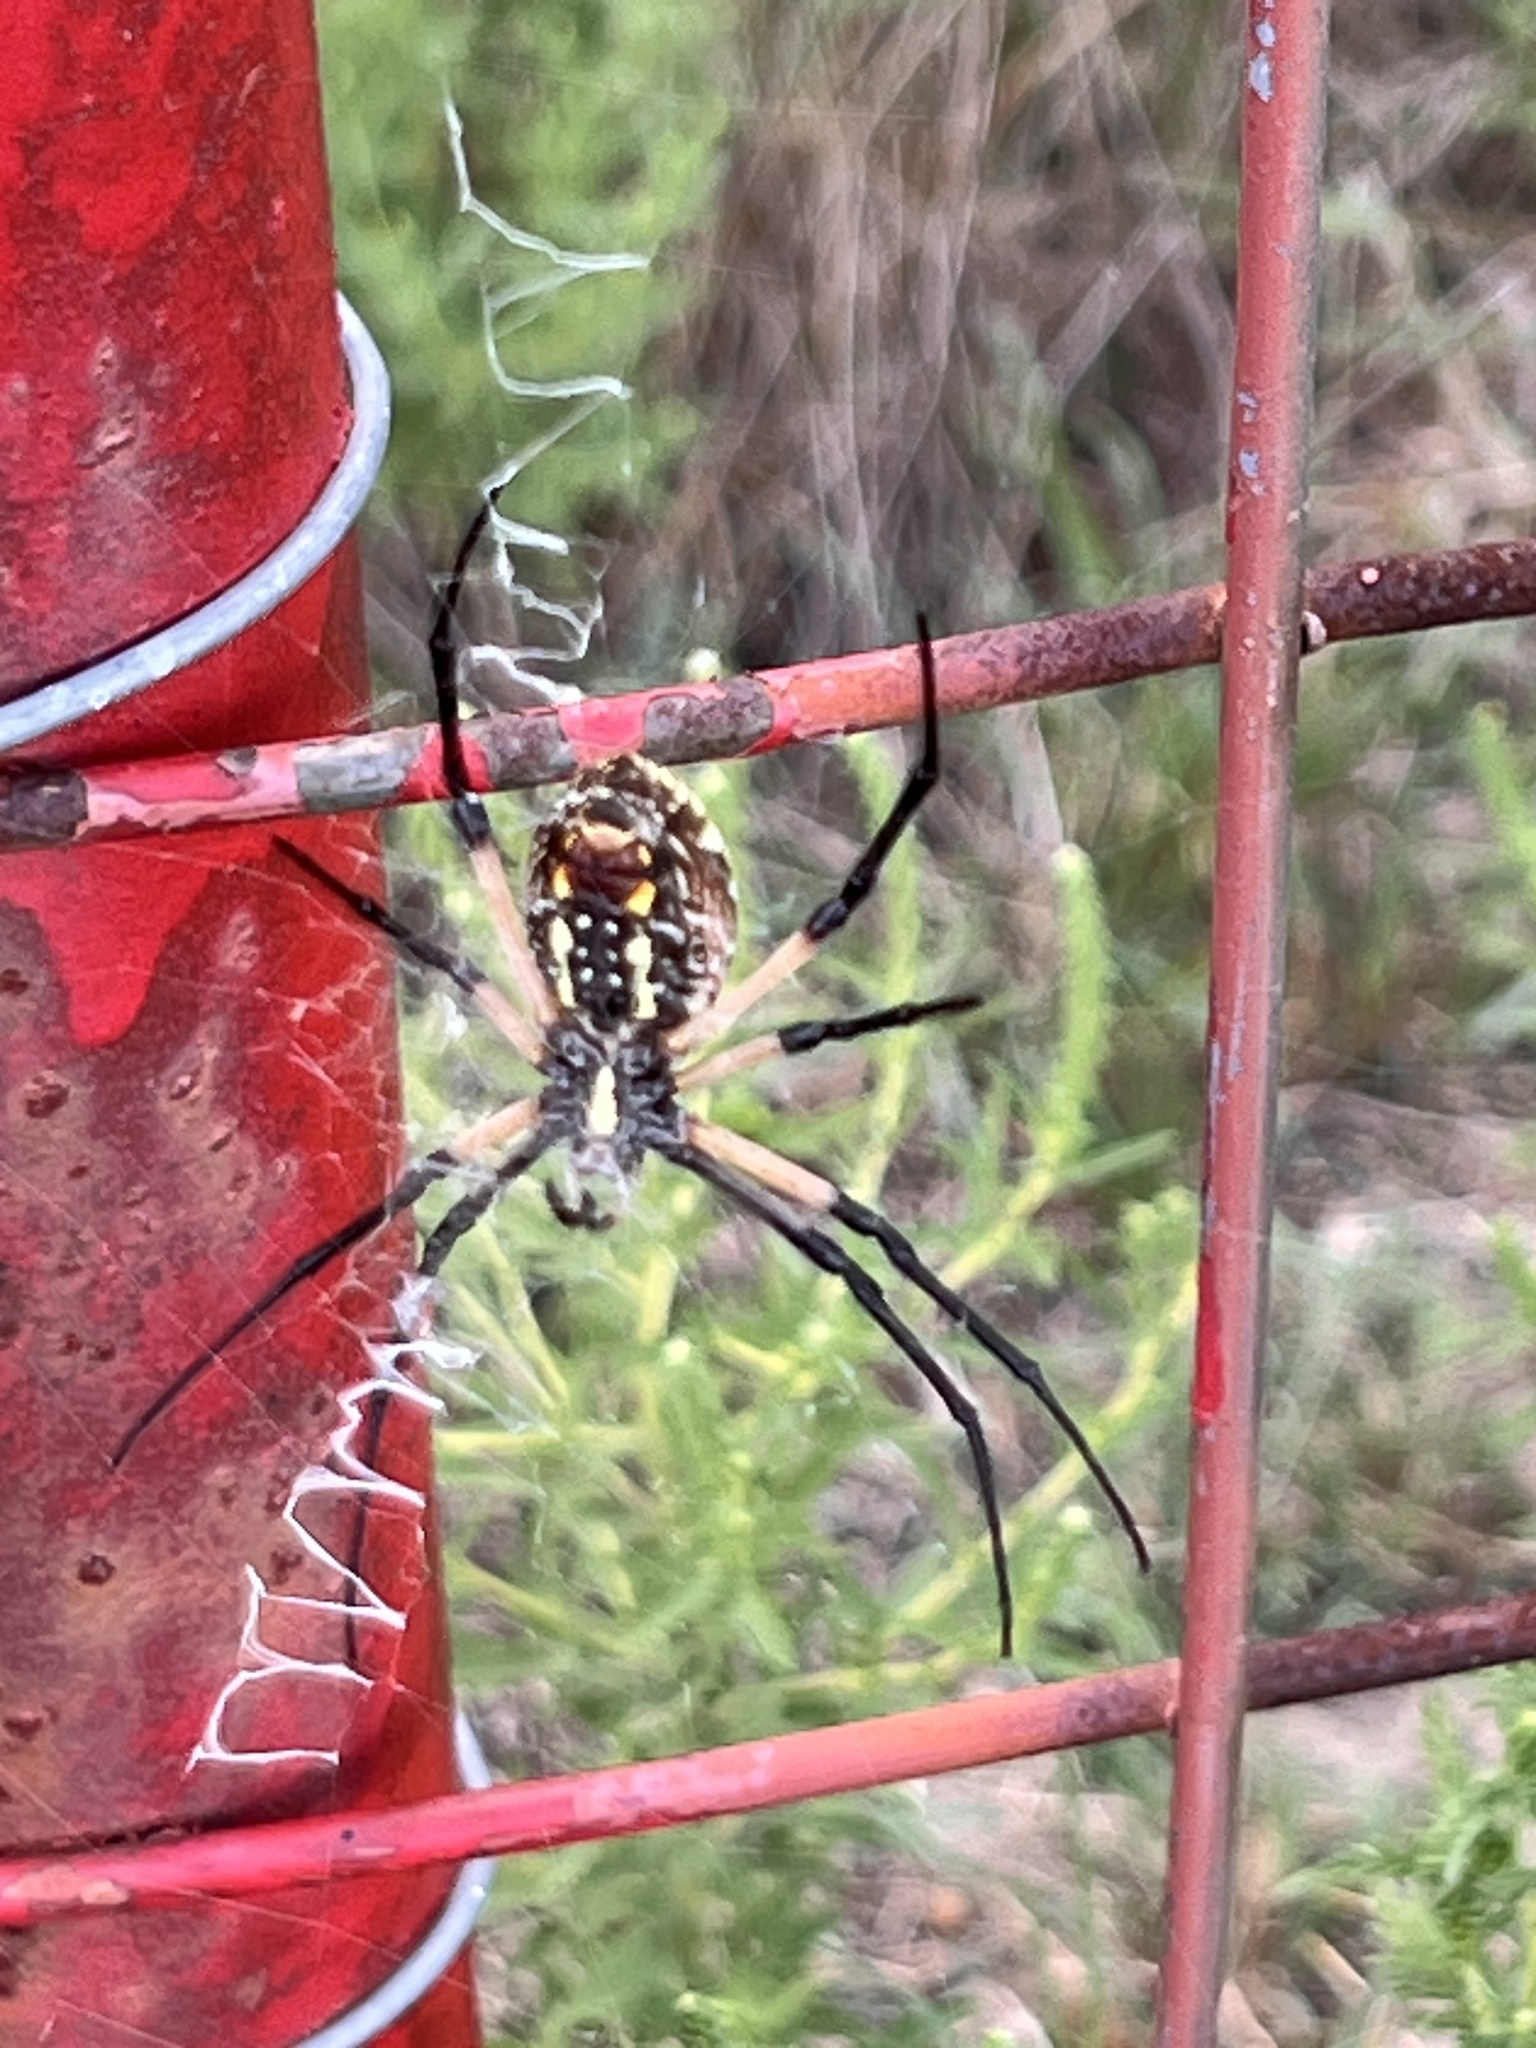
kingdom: Animalia
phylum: Arthropoda
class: Arachnida
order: Araneae
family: Araneidae
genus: Argiope
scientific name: Argiope aurantia
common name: Orb weavers
